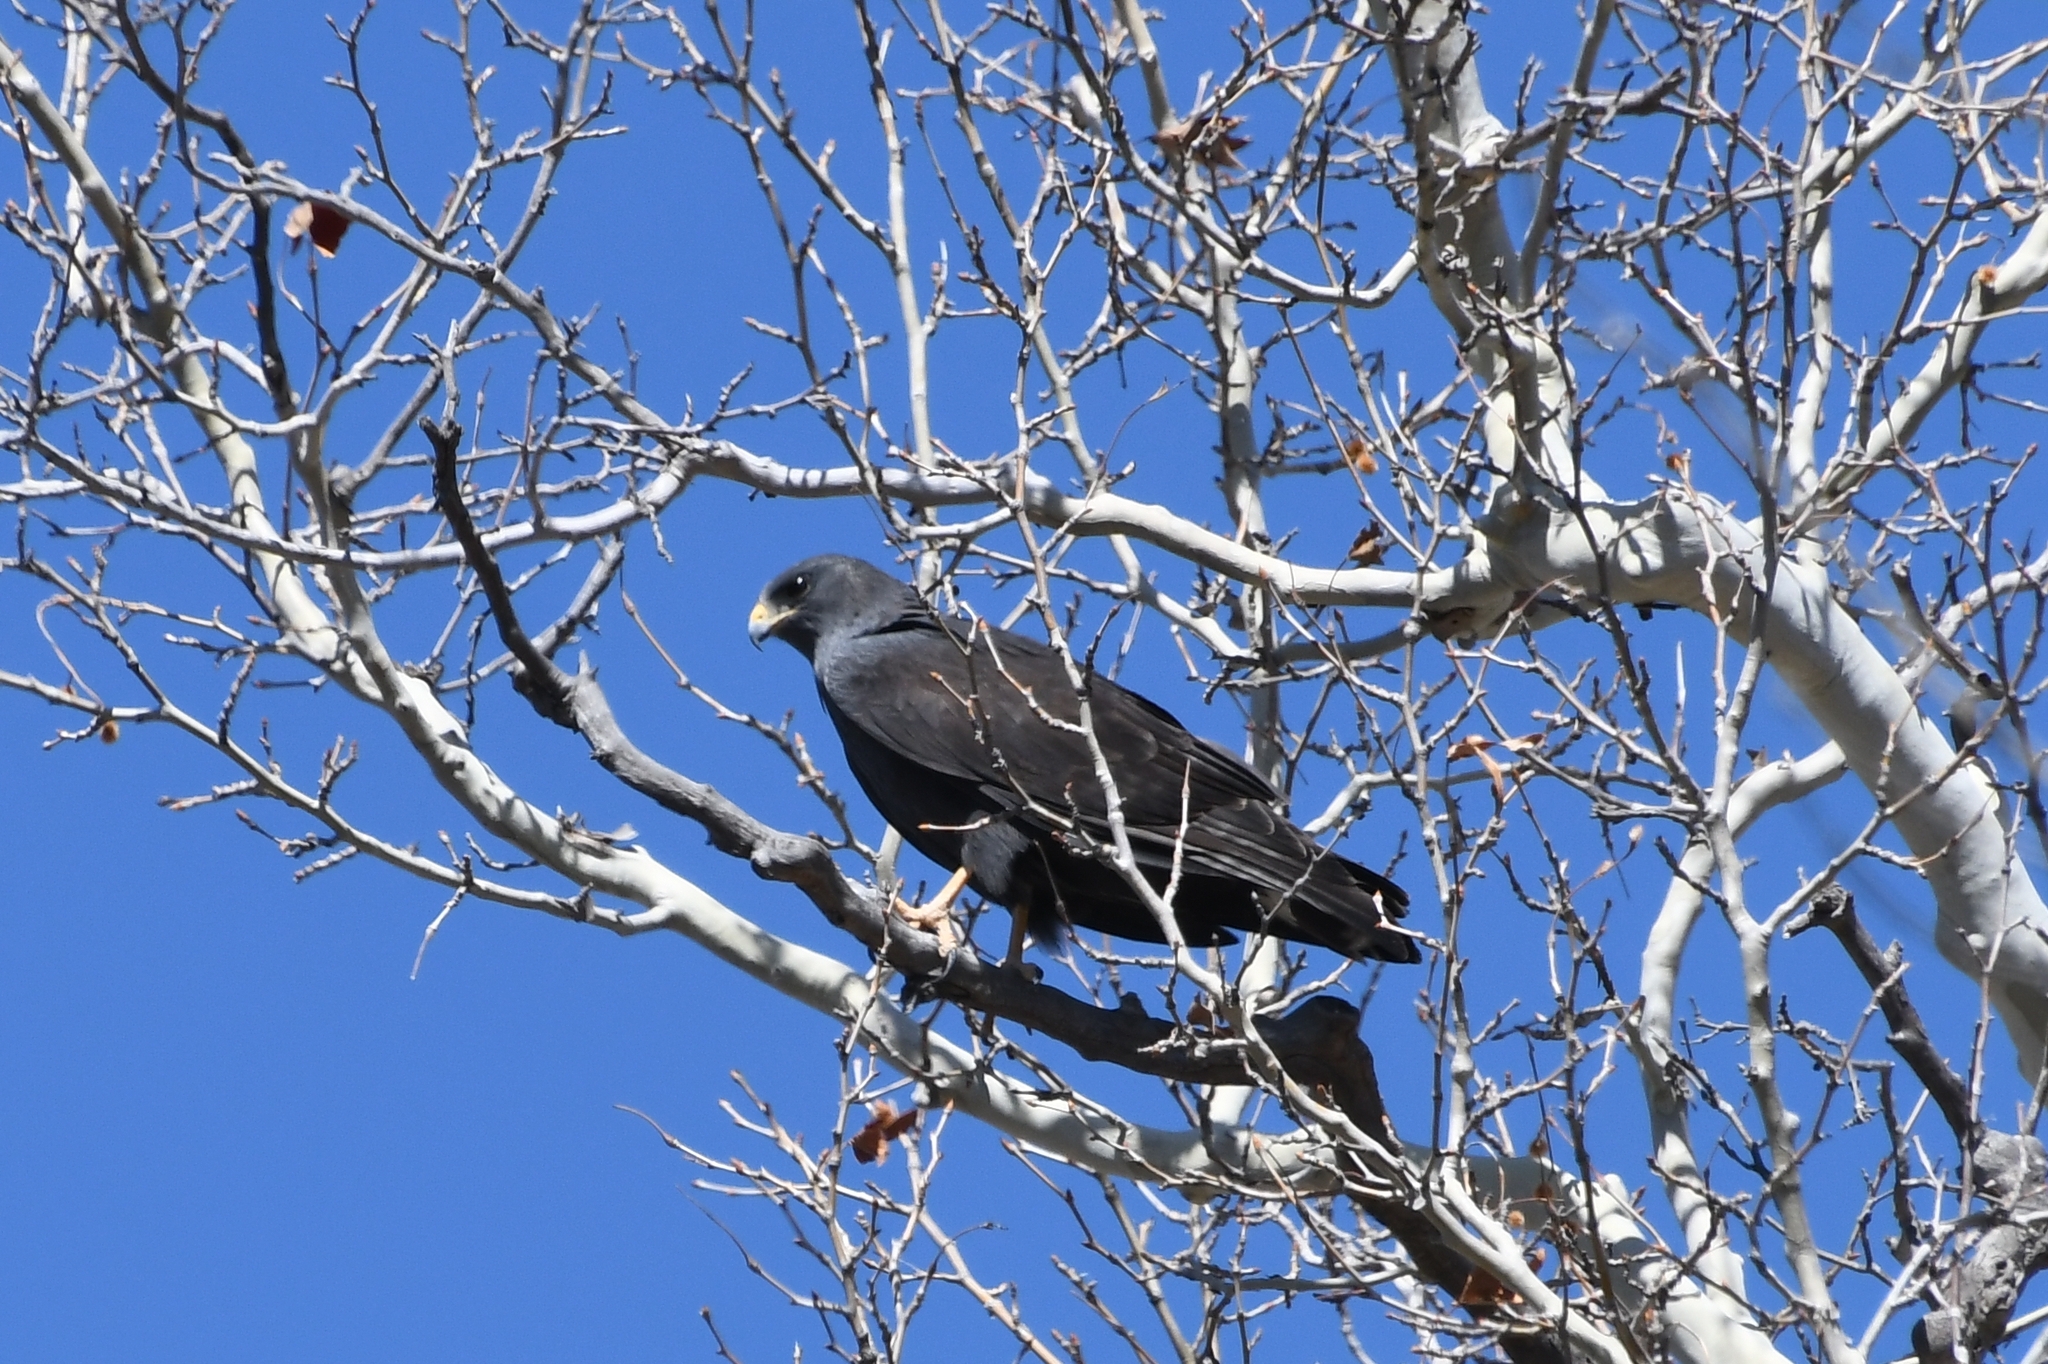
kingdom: Animalia
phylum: Chordata
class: Aves
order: Accipitriformes
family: Accipitridae
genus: Buteo
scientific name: Buteo albonotatus
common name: Zone-tailed hawk
